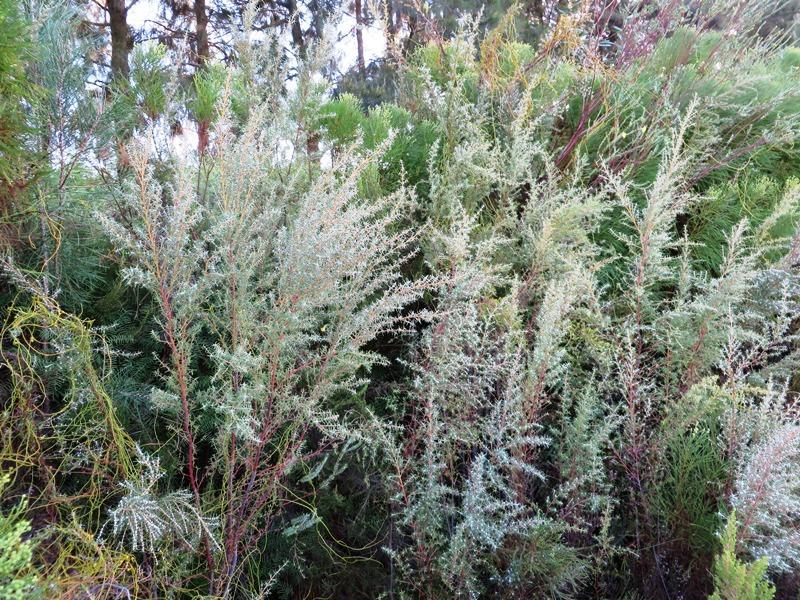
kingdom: Plantae
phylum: Tracheophyta
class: Magnoliopsida
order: Cornales
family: Grubbiaceae
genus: Grubbia
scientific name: Grubbia rosmarinifolia
